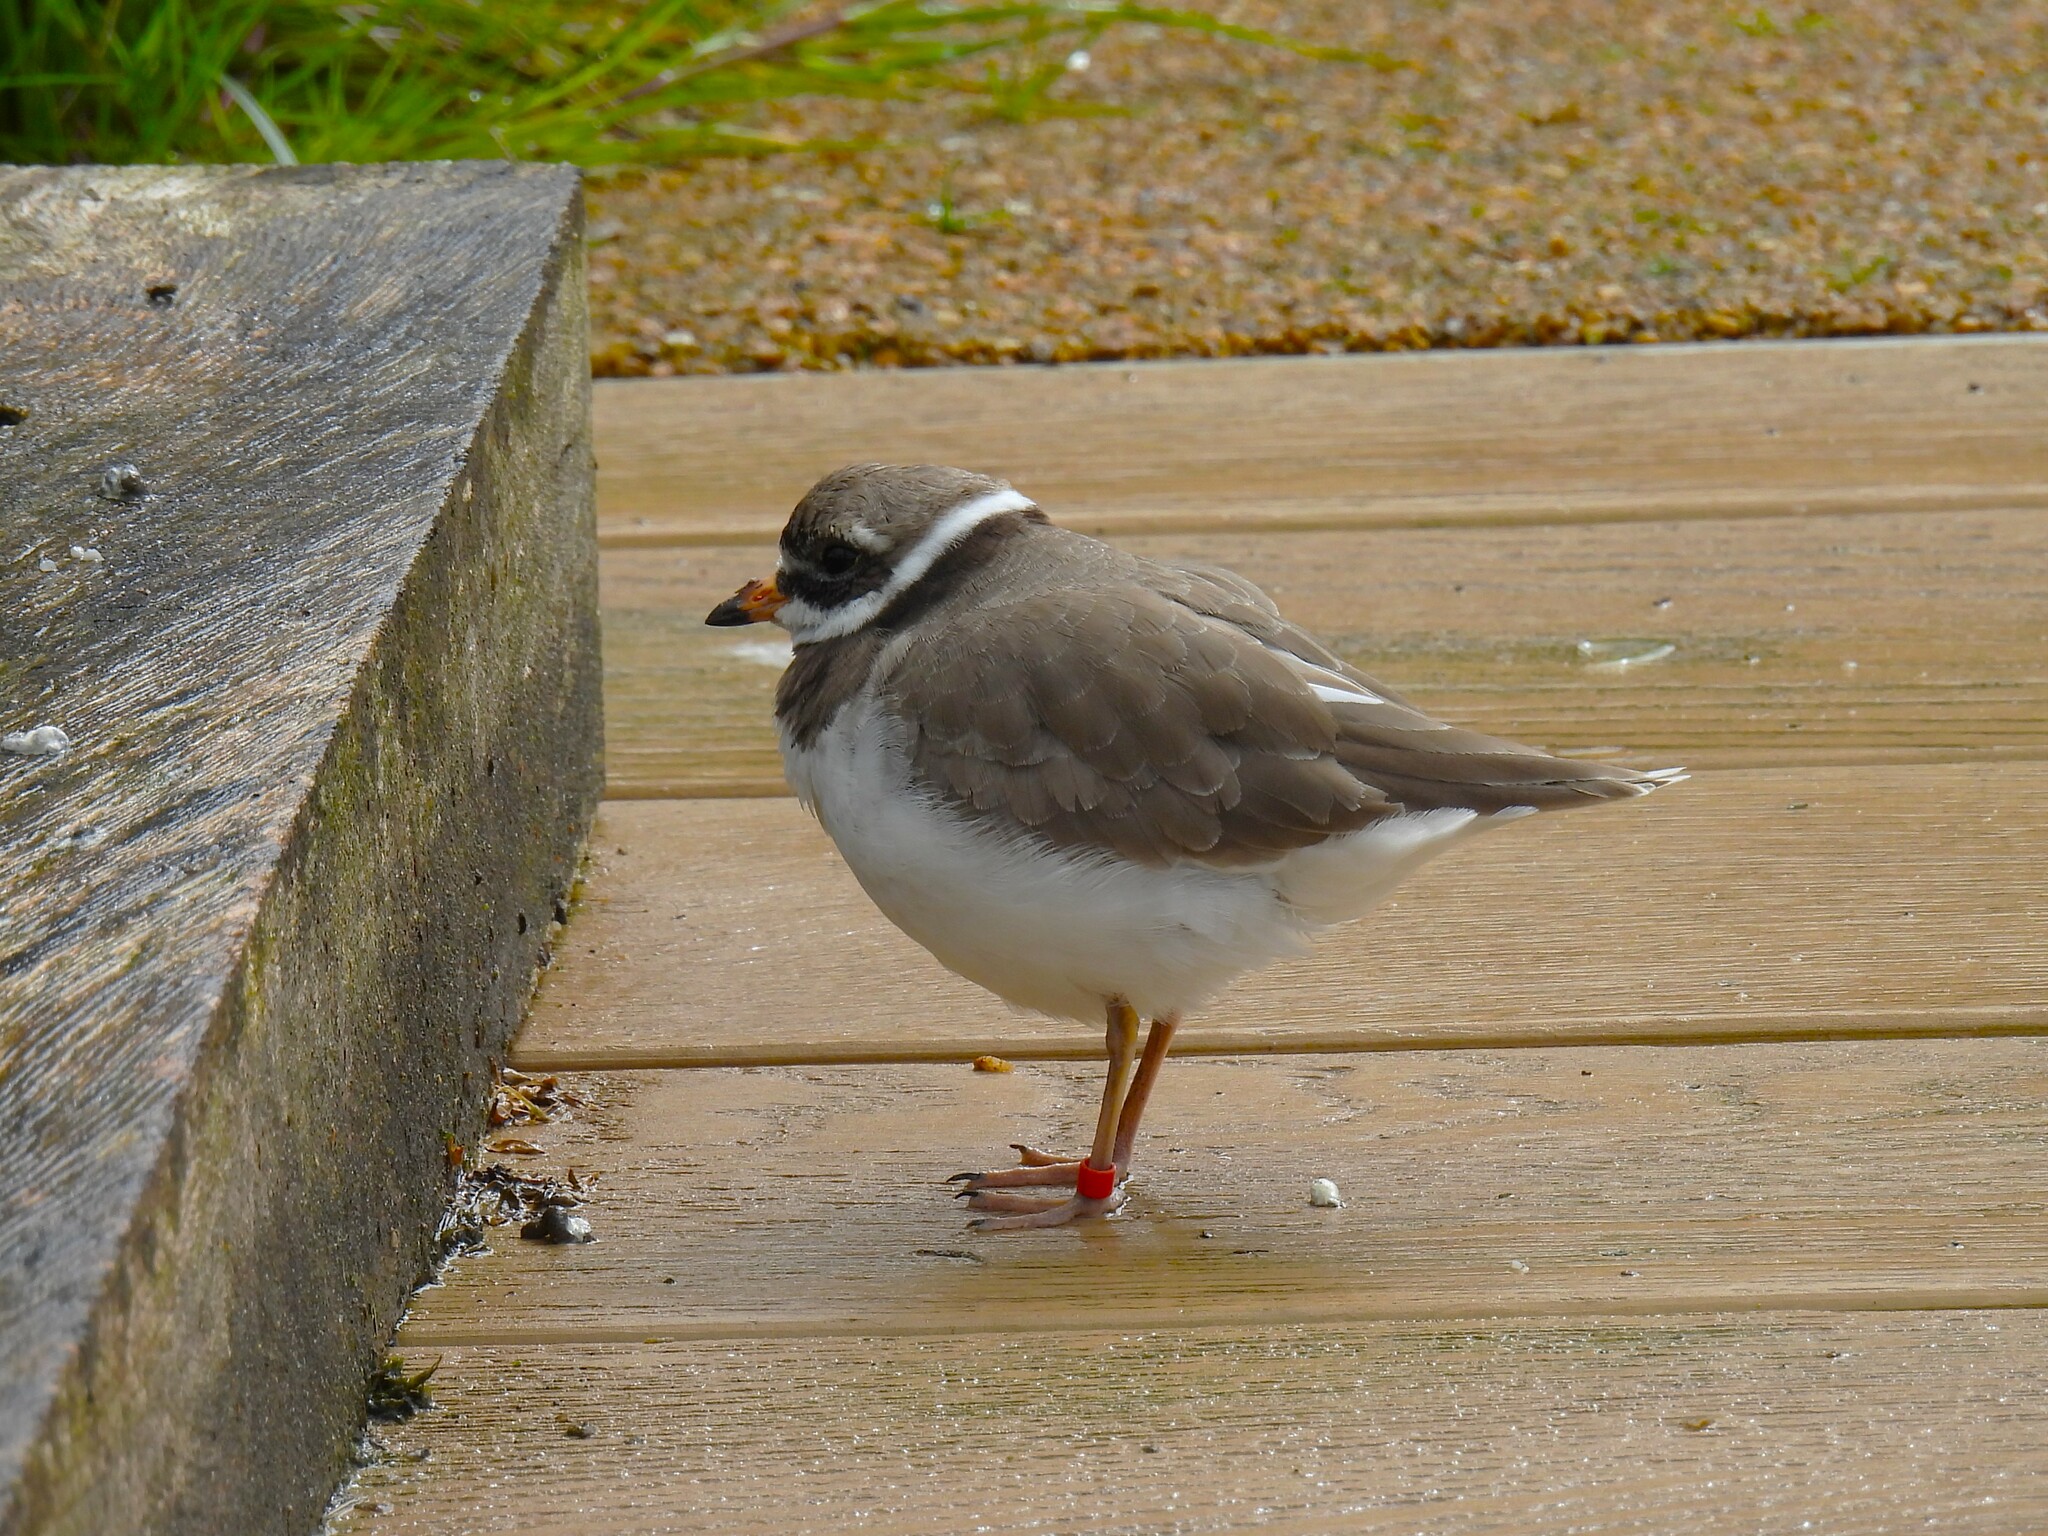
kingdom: Animalia
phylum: Chordata
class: Aves
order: Charadriiformes
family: Charadriidae
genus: Charadrius
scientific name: Charadrius hiaticula
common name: Common ringed plover
